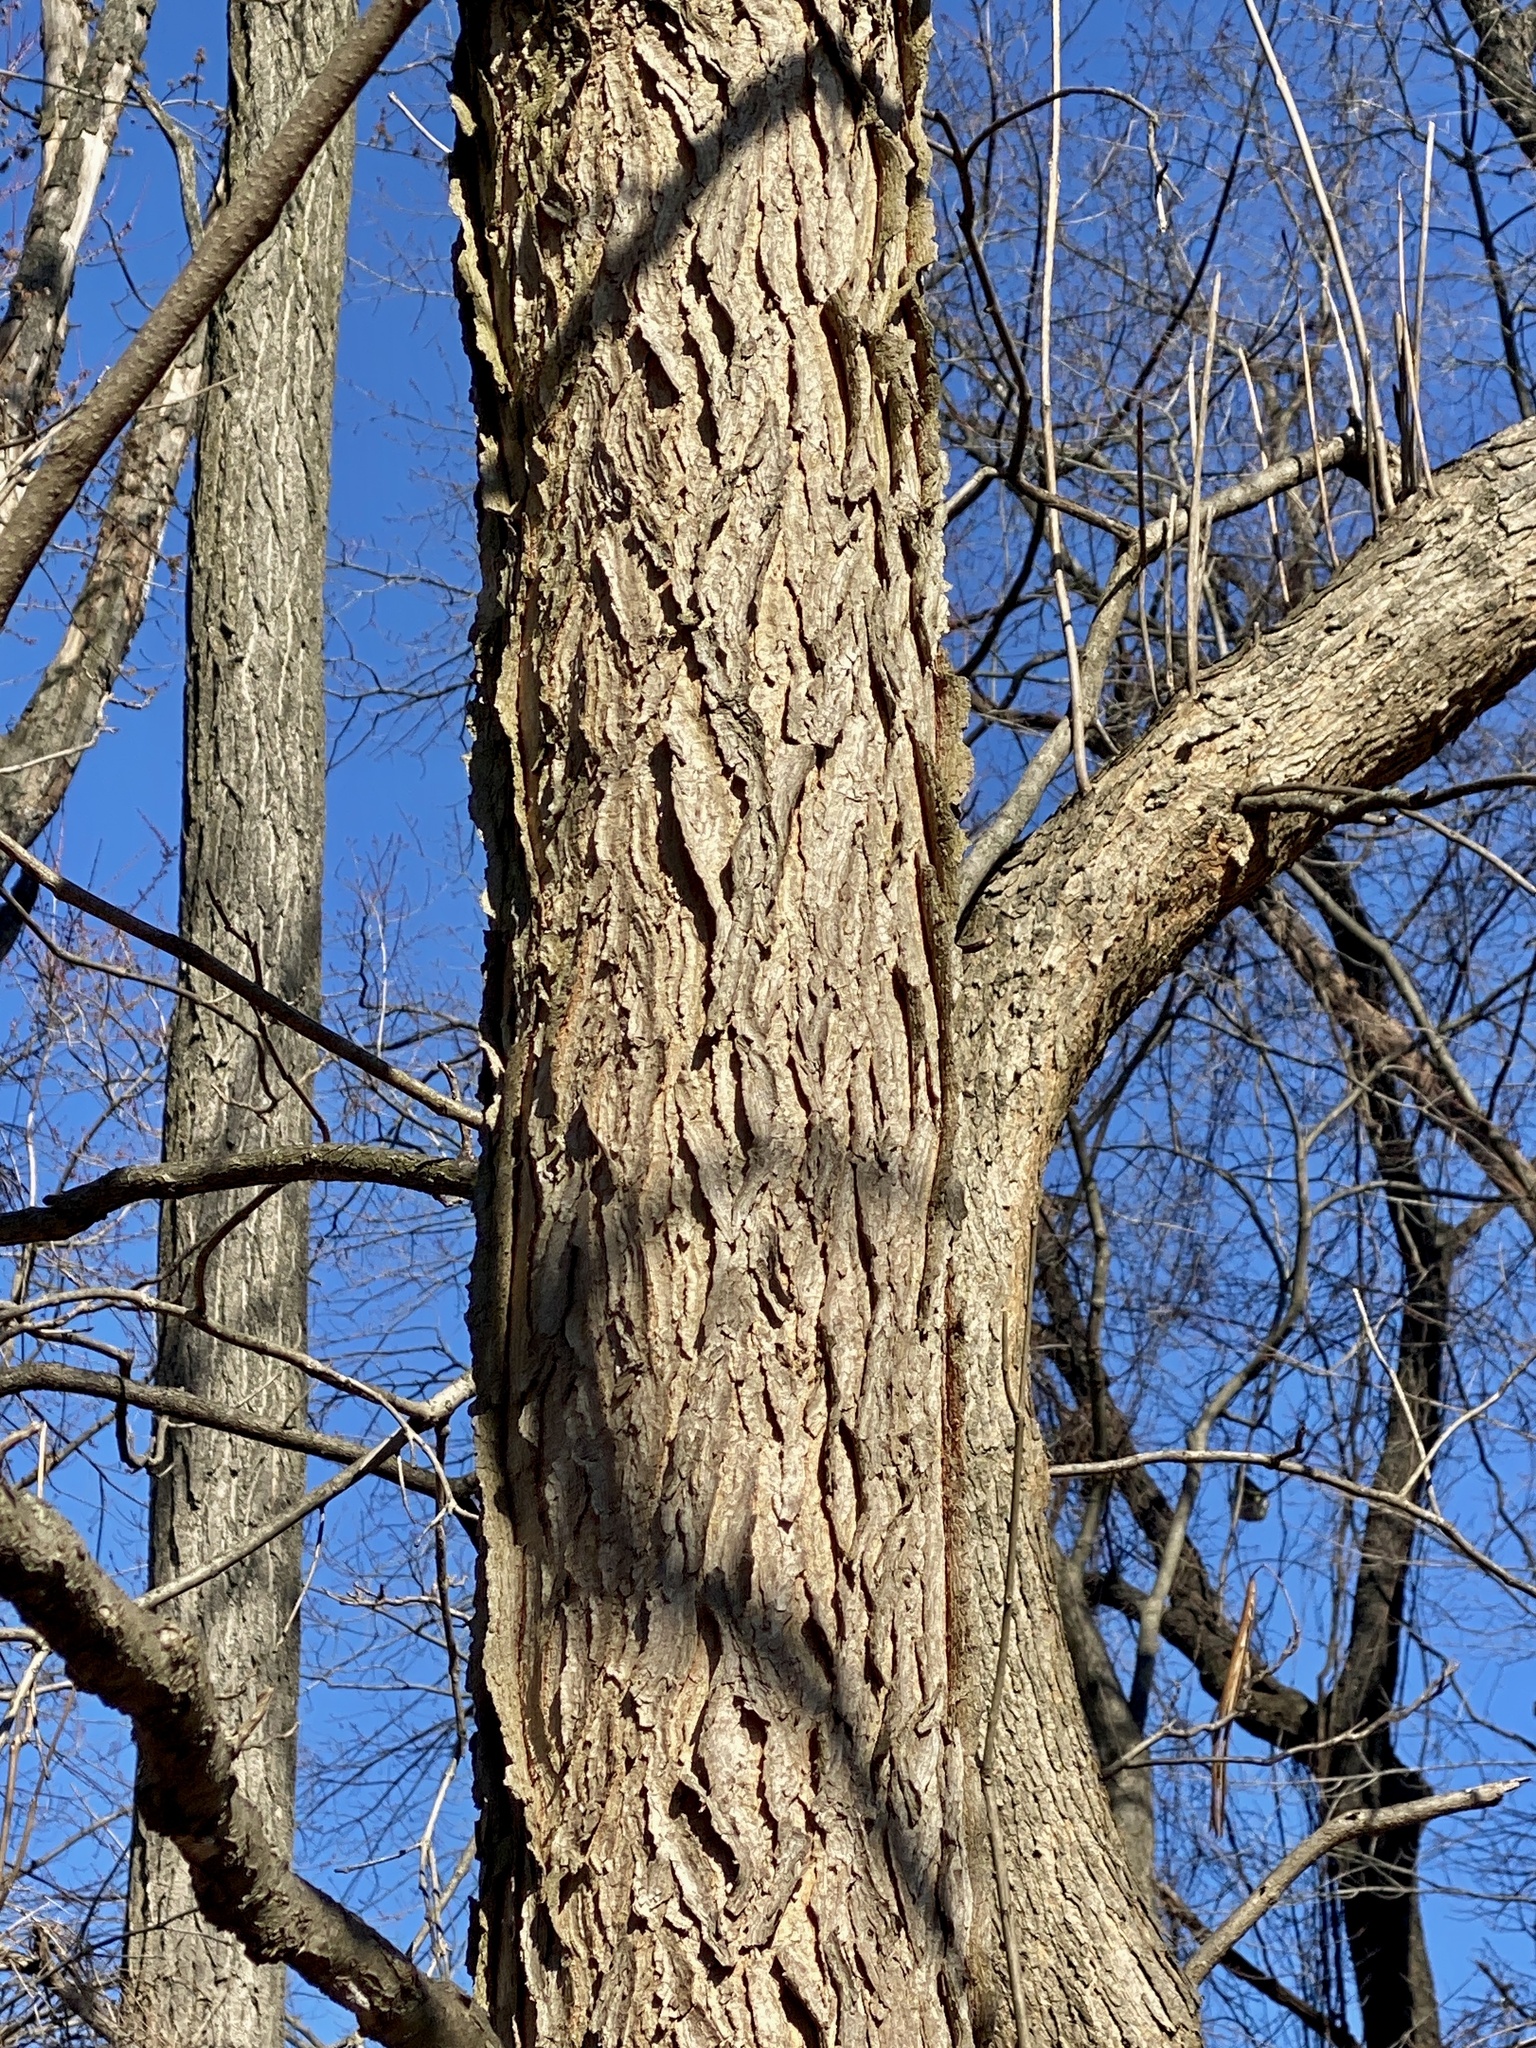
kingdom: Plantae
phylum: Tracheophyta
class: Magnoliopsida
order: Fabales
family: Fabaceae
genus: Gymnocladus
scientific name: Gymnocladus dioicus
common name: Kentucky coffee-tree
